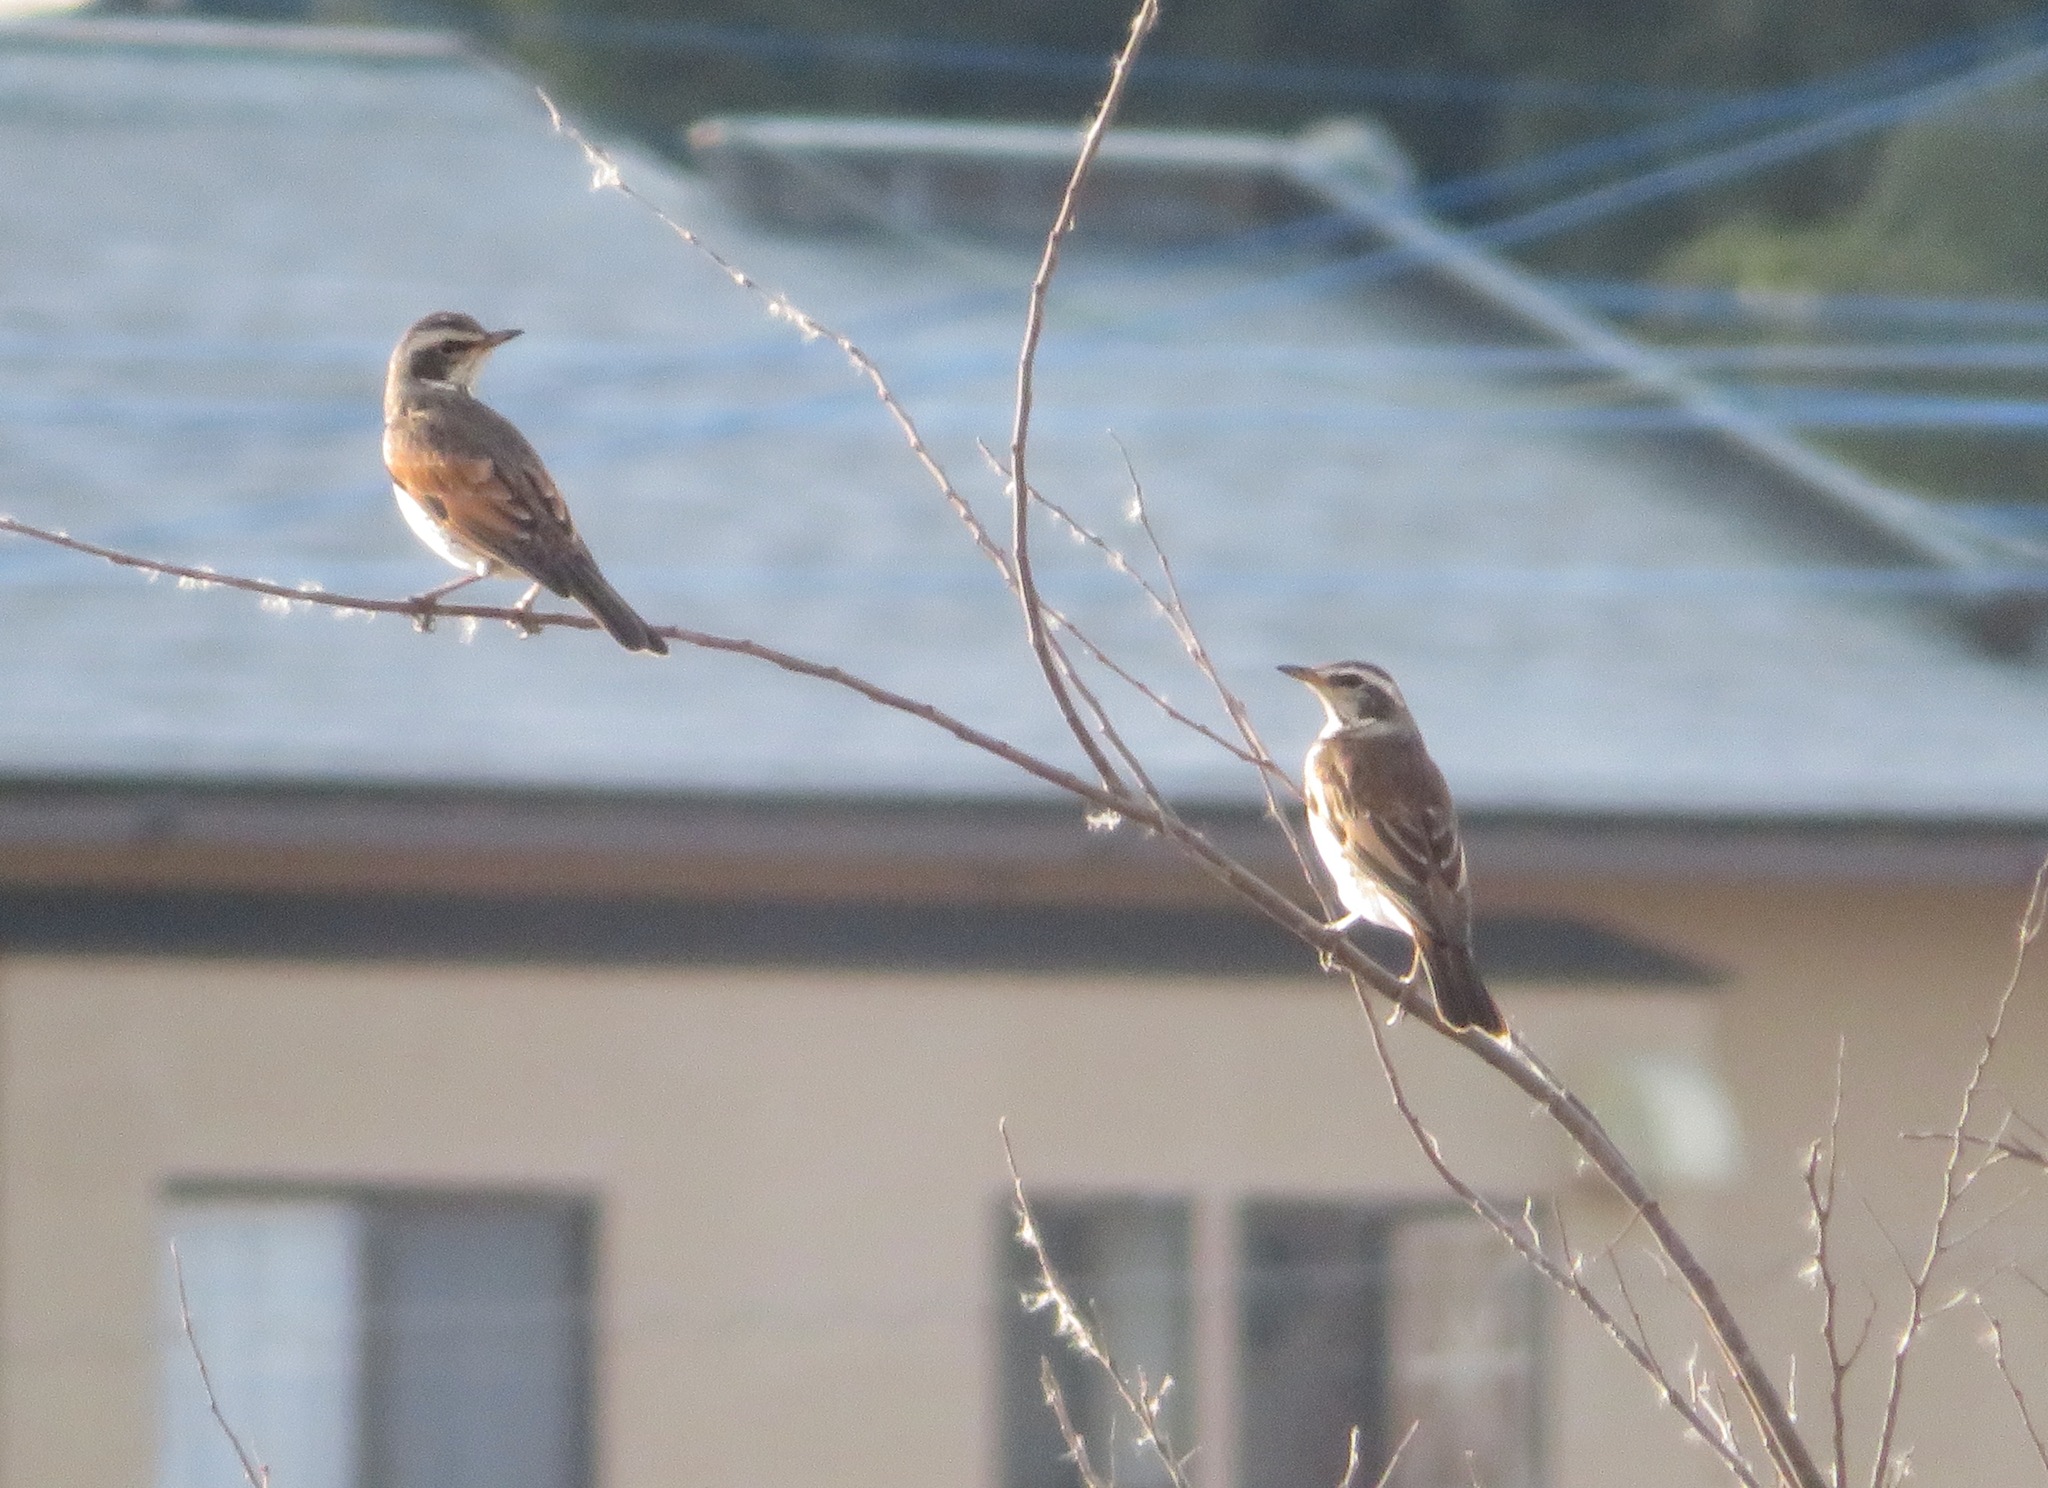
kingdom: Animalia
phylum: Chordata
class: Aves
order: Passeriformes
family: Turdidae
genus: Turdus
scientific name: Turdus eunomus
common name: Dusky thrush
